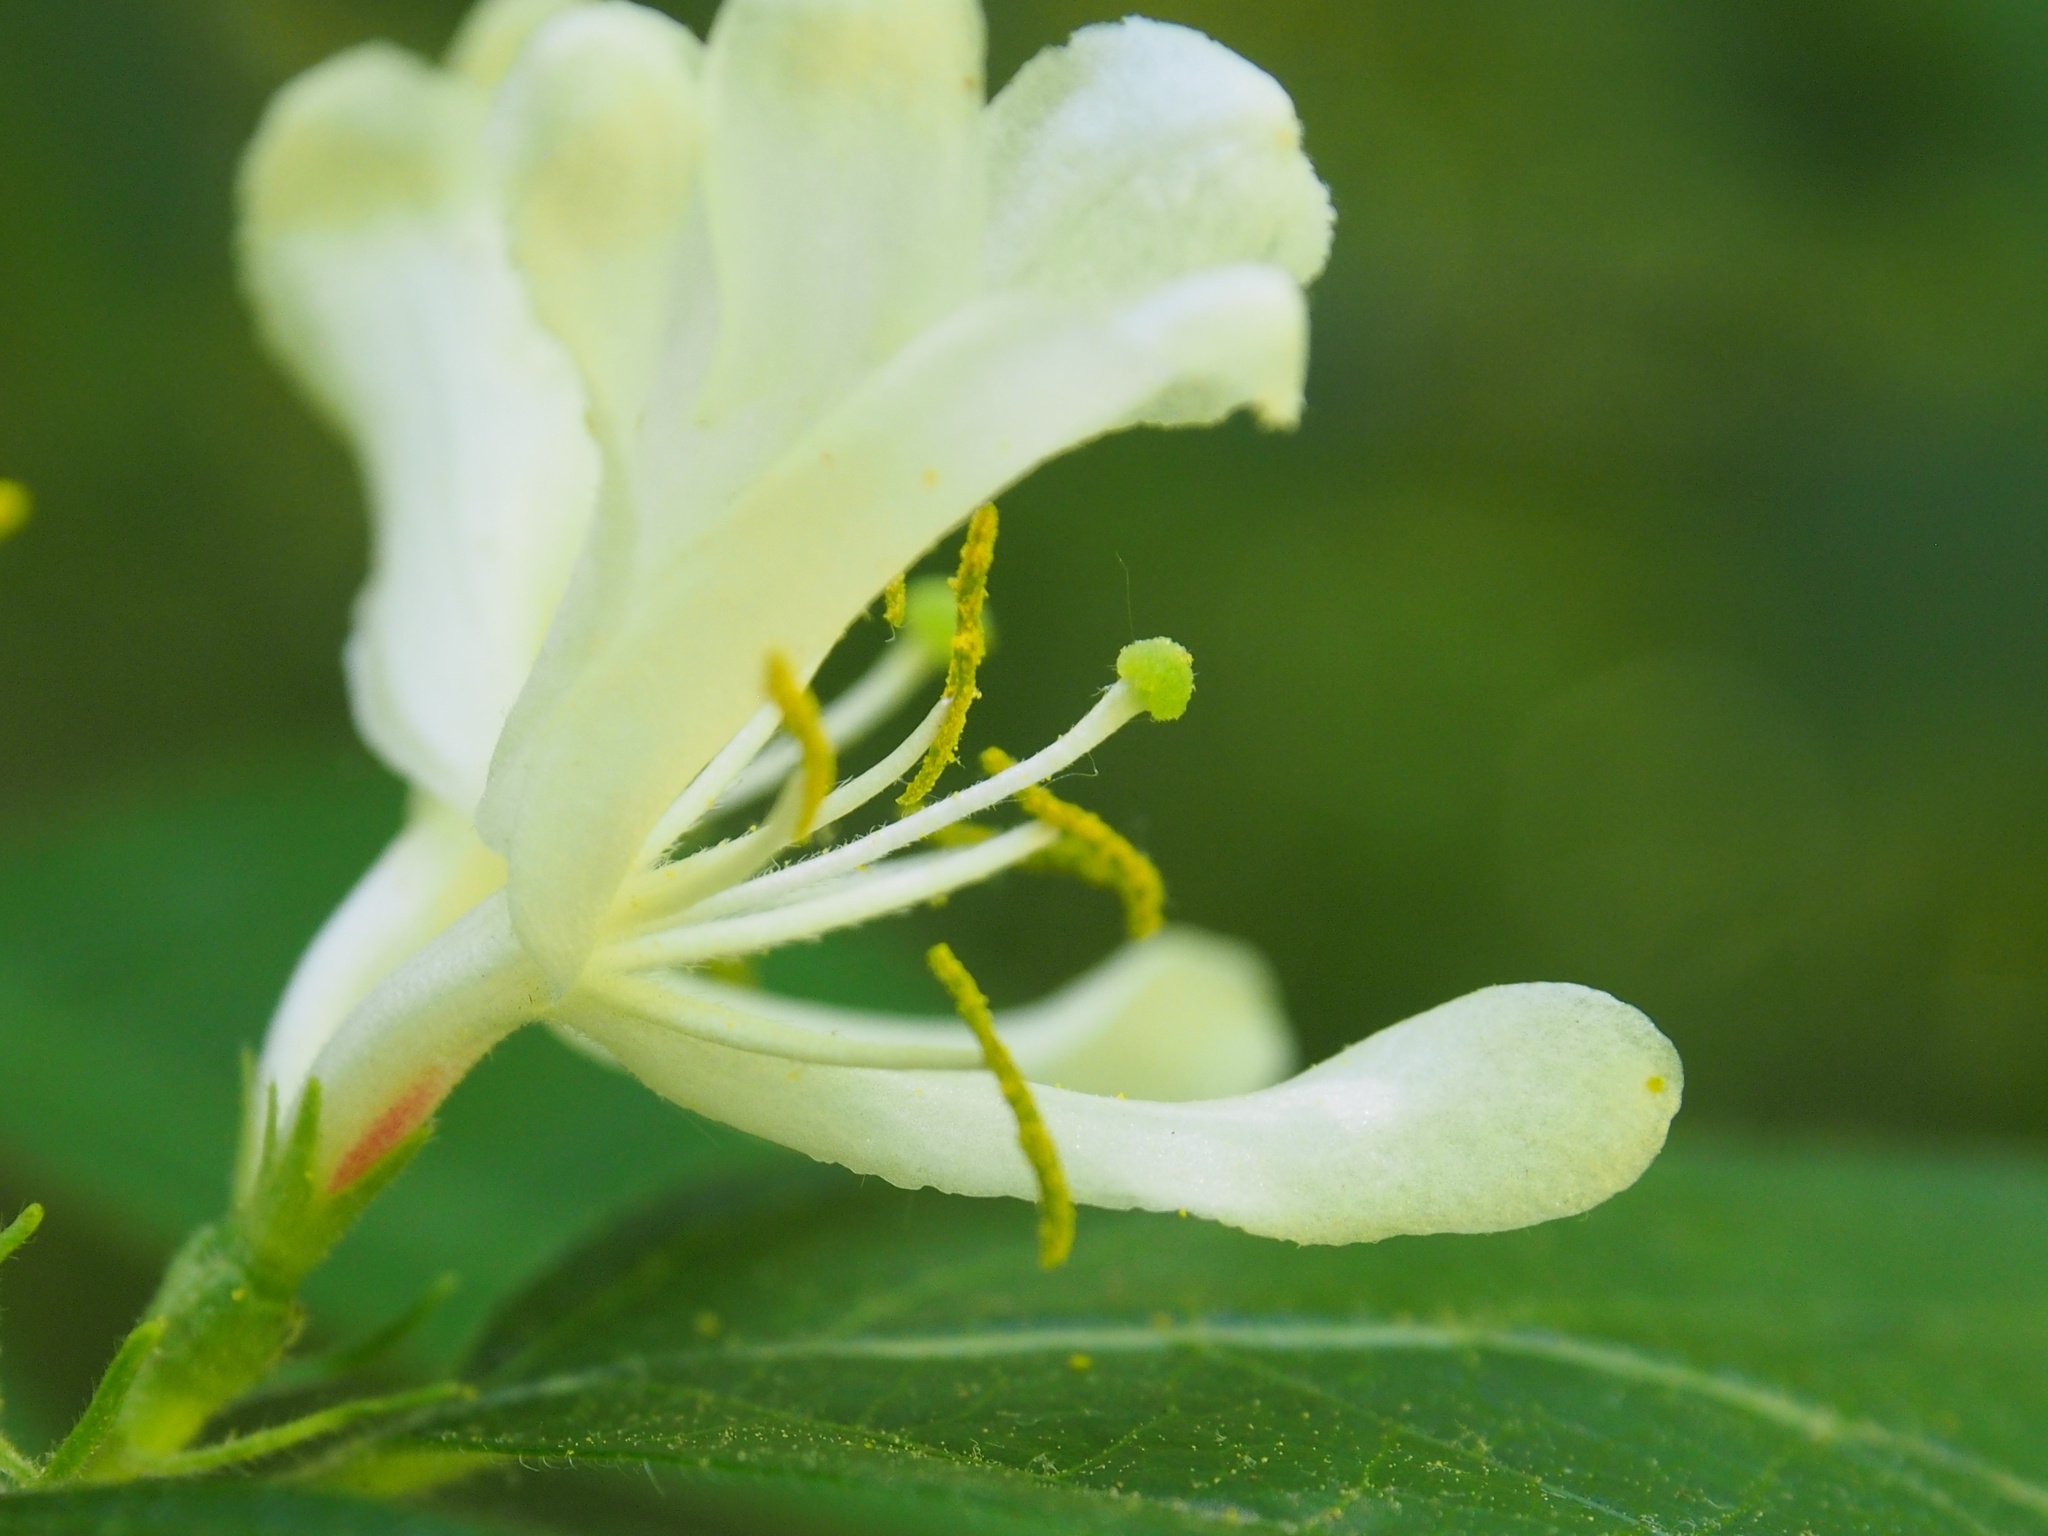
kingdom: Plantae
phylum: Tracheophyta
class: Magnoliopsida
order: Dipsacales
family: Caprifoliaceae
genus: Lonicera
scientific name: Lonicera maackii
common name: Amur honeysuckle
